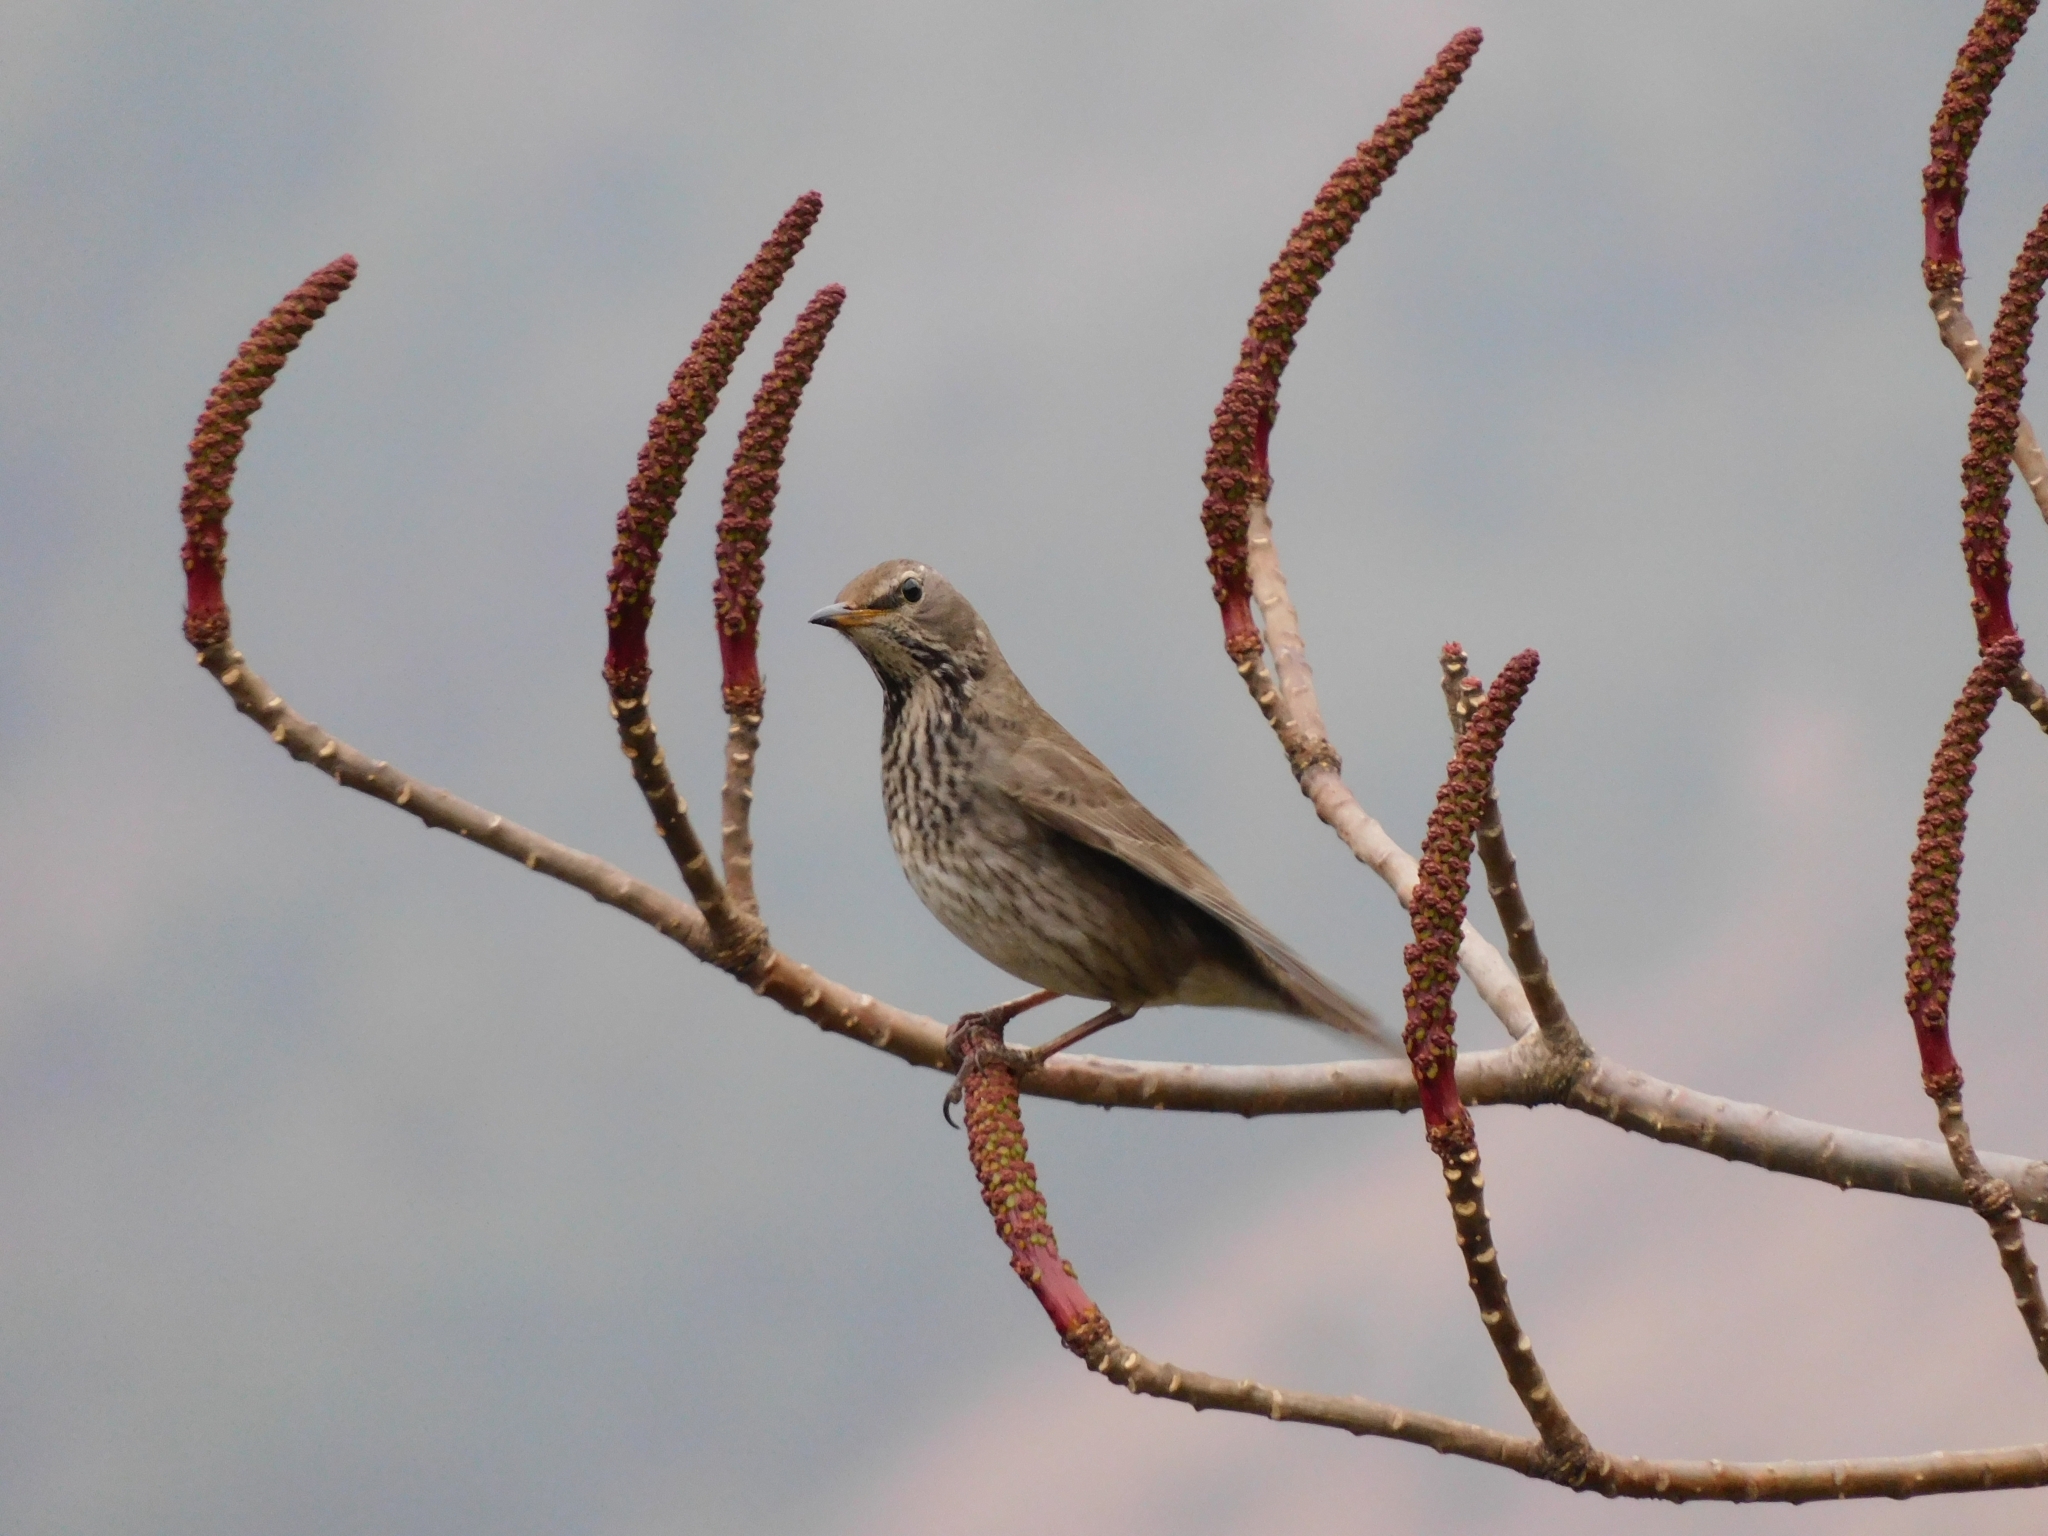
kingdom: Animalia
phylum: Chordata
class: Aves
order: Passeriformes
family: Turdidae
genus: Turdus
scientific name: Turdus atrogularis
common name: Black-throated thrush
